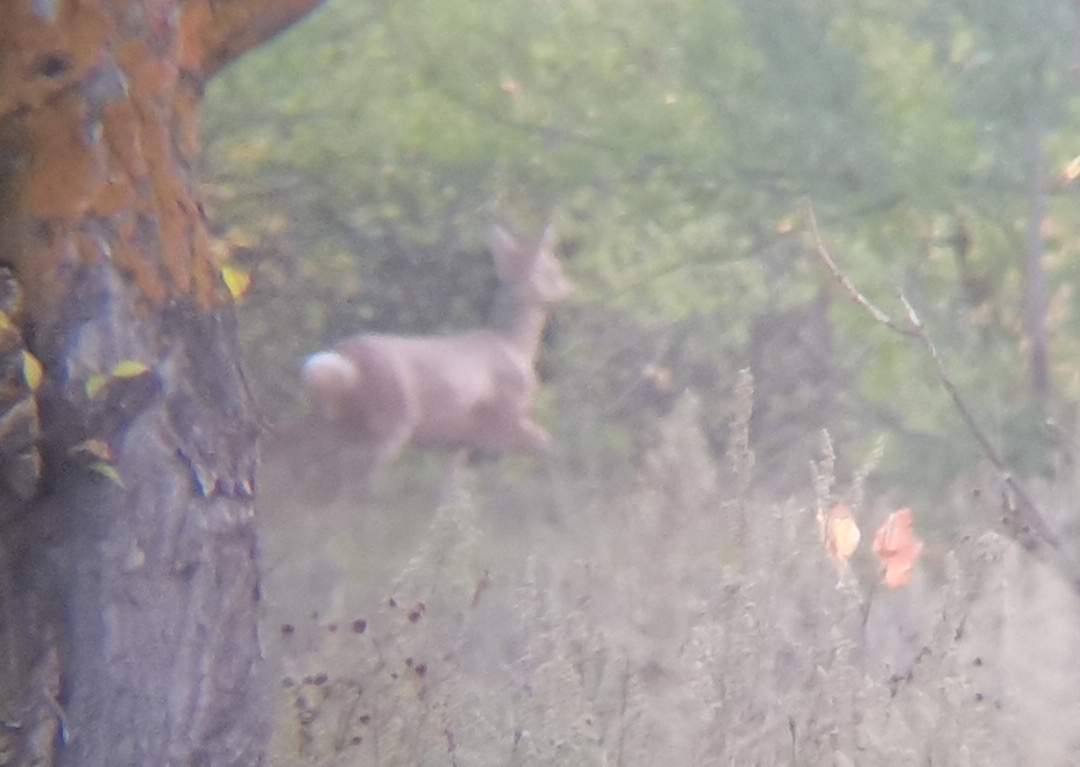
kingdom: Animalia
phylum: Chordata
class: Mammalia
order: Artiodactyla
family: Cervidae
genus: Capreolus
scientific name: Capreolus pygargus
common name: Siberian roe
